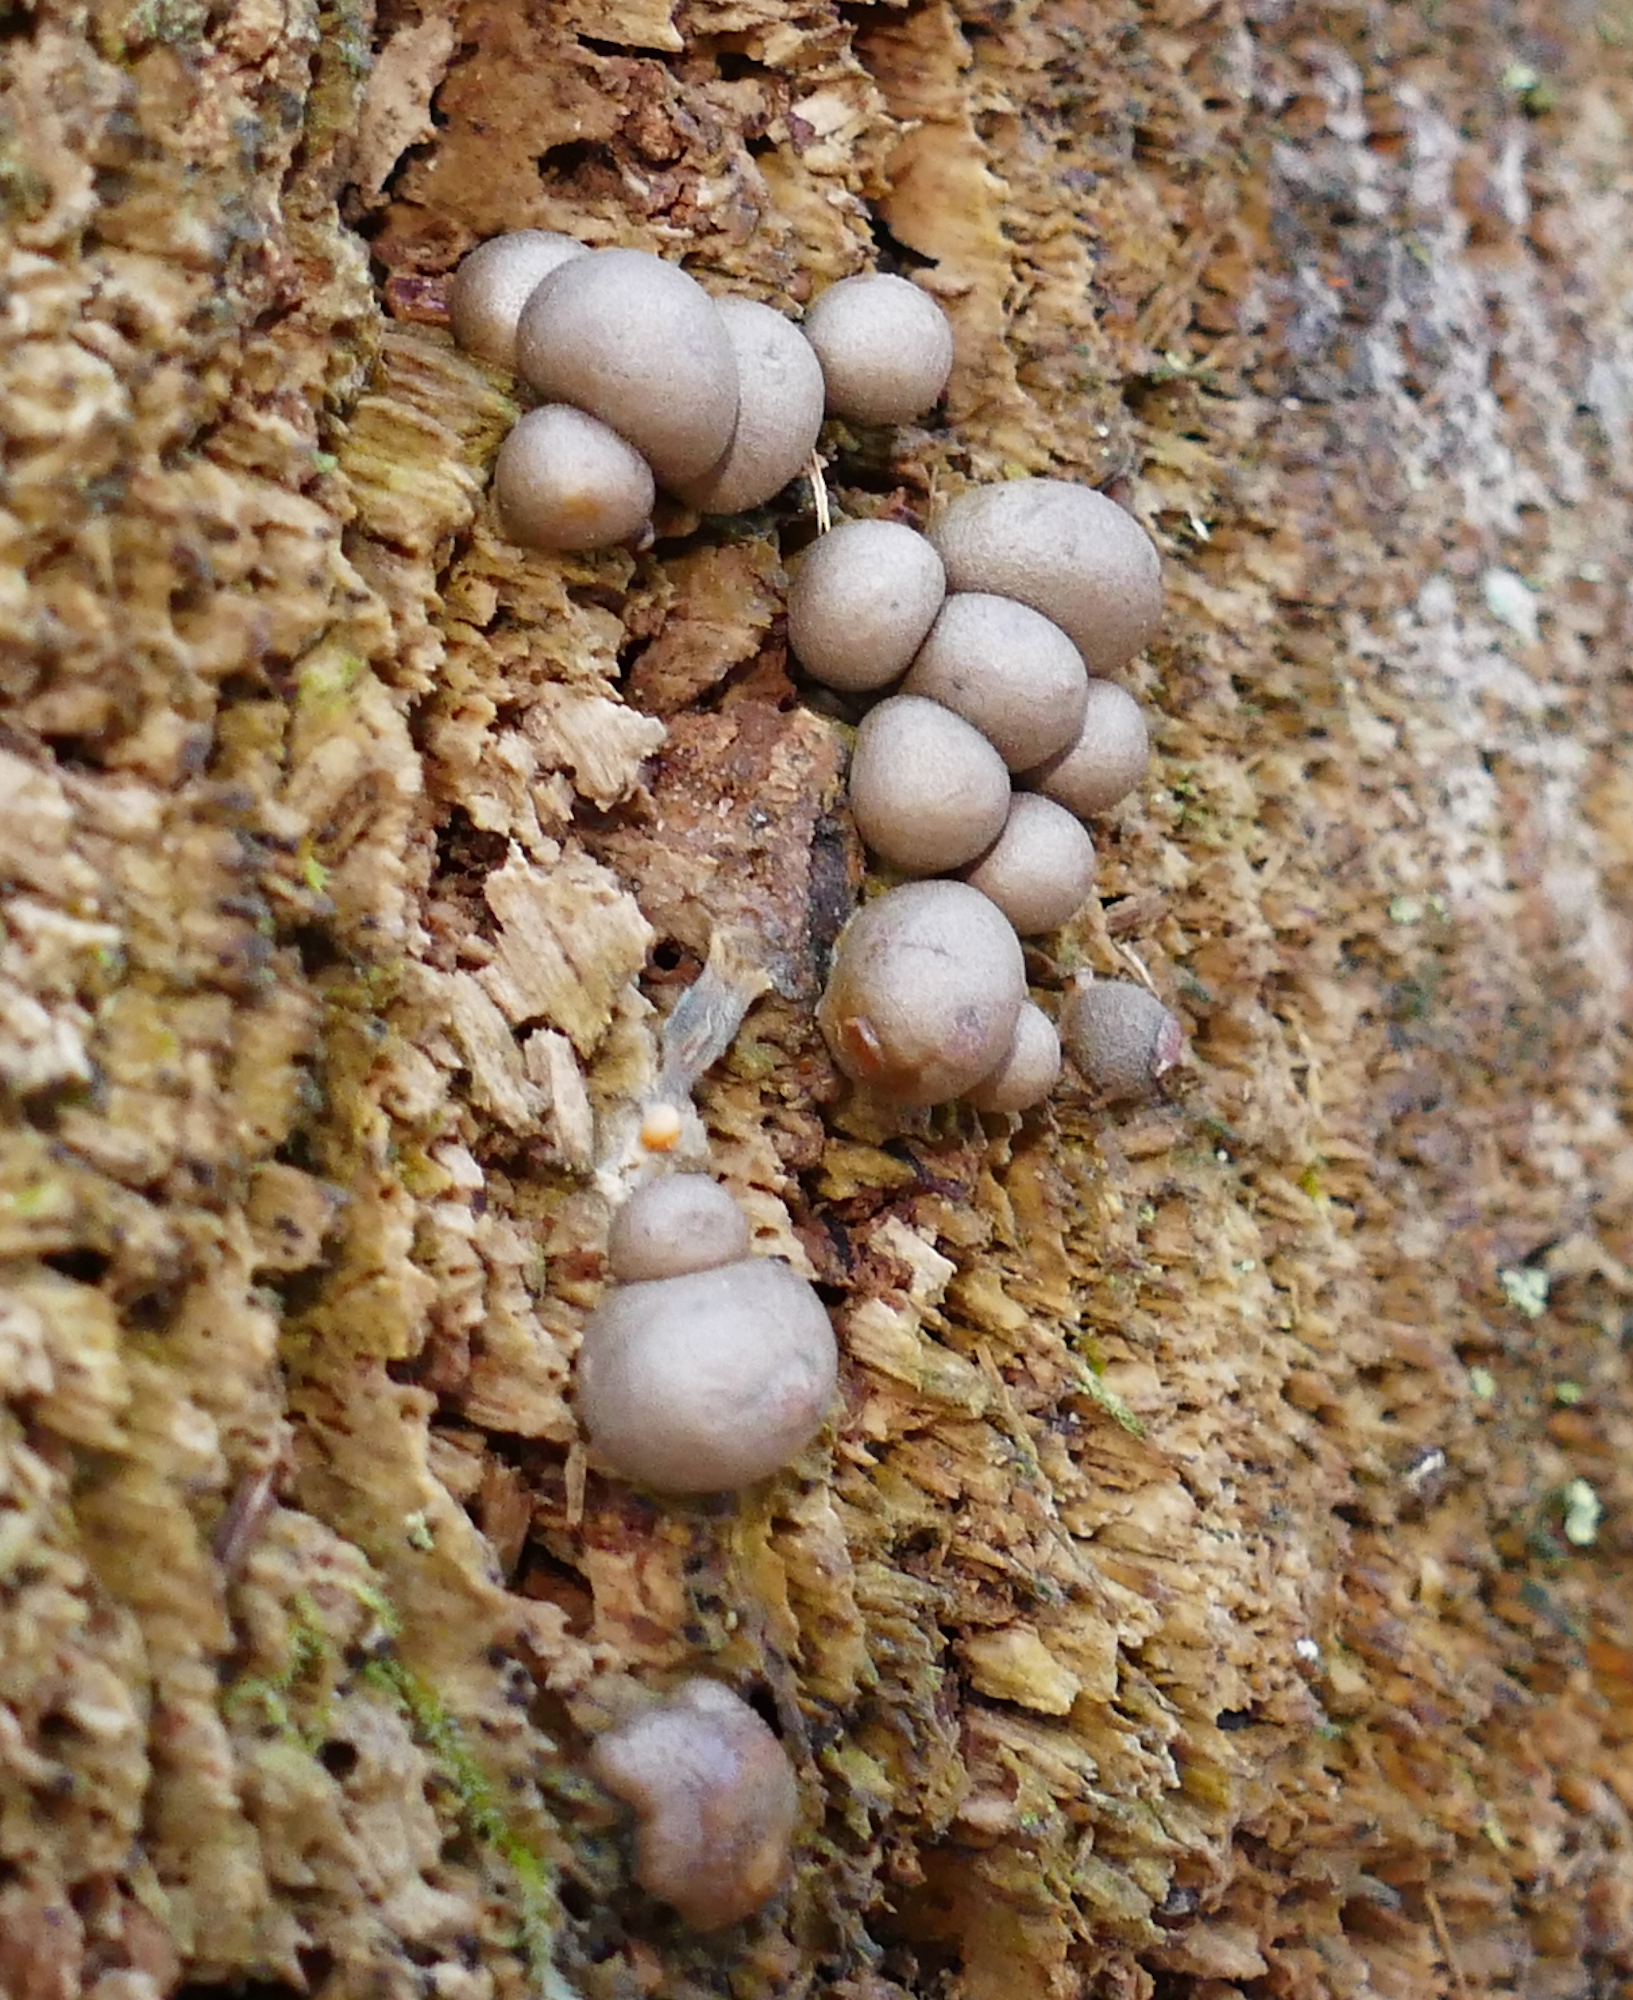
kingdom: Protozoa
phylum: Mycetozoa
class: Myxomycetes
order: Cribrariales
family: Tubiferaceae
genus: Lycogala
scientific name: Lycogala epidendrum
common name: Wolf's milk
